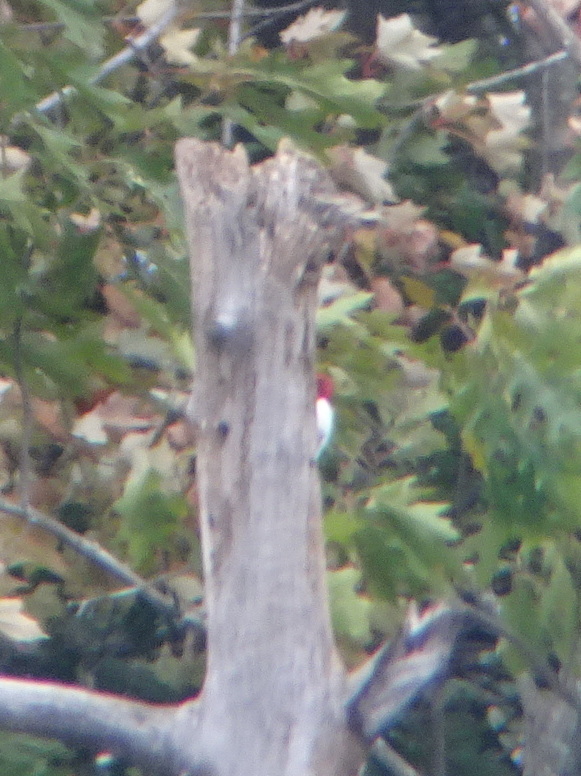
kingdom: Animalia
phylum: Chordata
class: Aves
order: Piciformes
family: Picidae
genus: Melanerpes
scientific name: Melanerpes erythrocephalus
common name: Red-headed woodpecker
